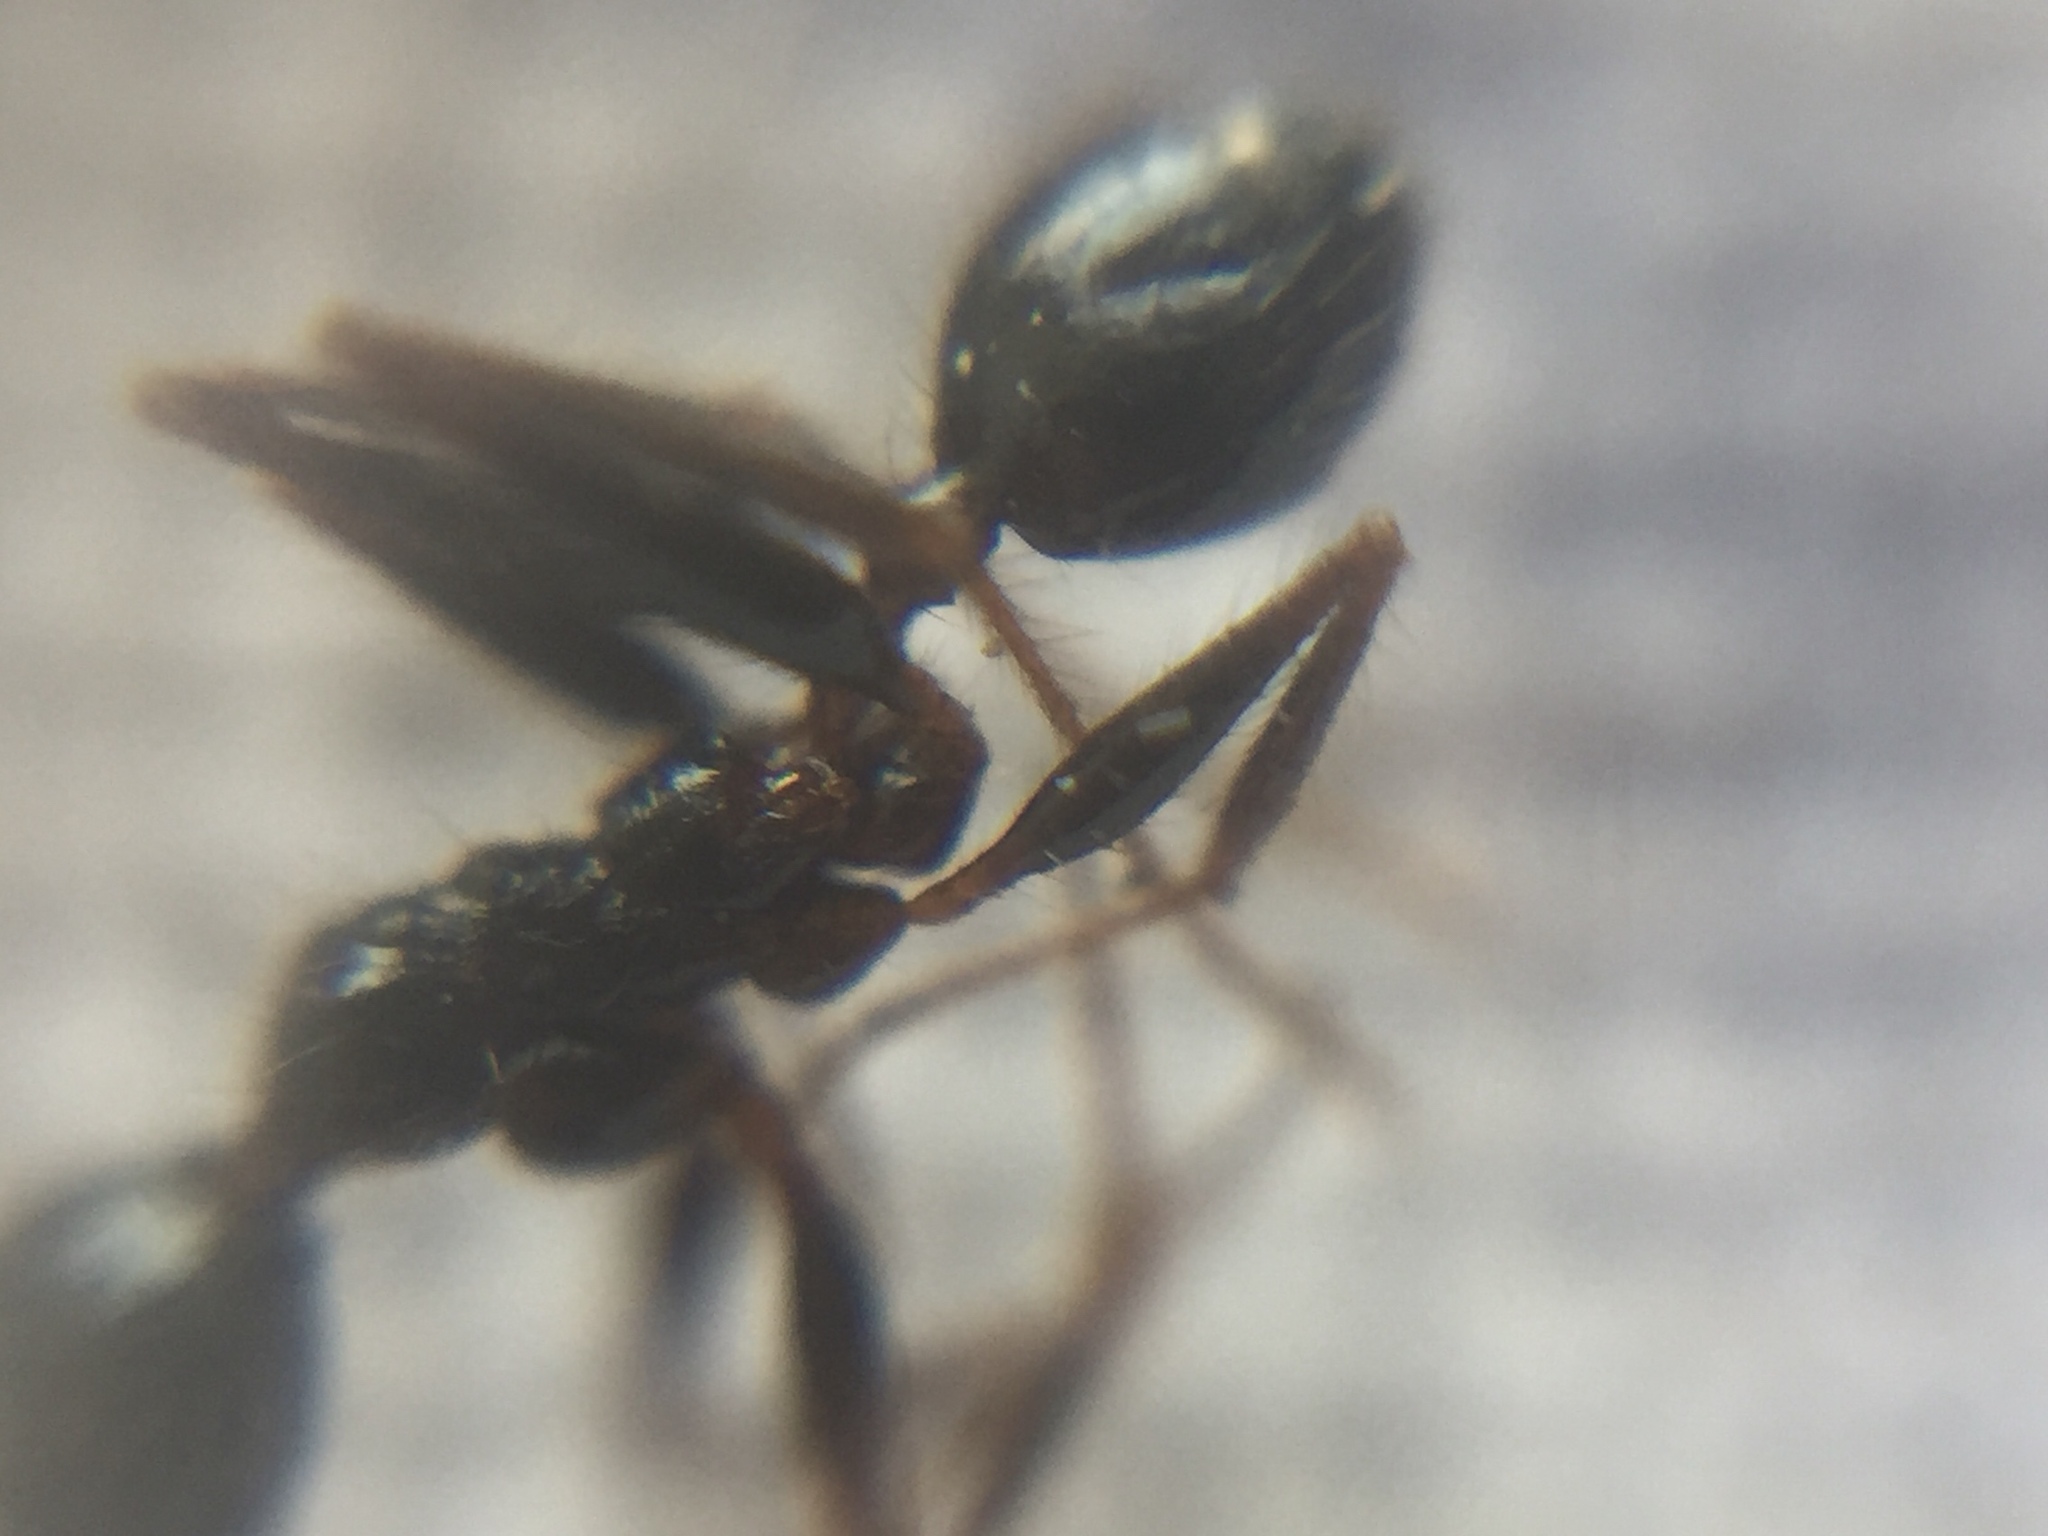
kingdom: Animalia
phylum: Arthropoda
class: Insecta
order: Hymenoptera
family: Formicidae
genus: Pheidole
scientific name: Pheidole latinoda
